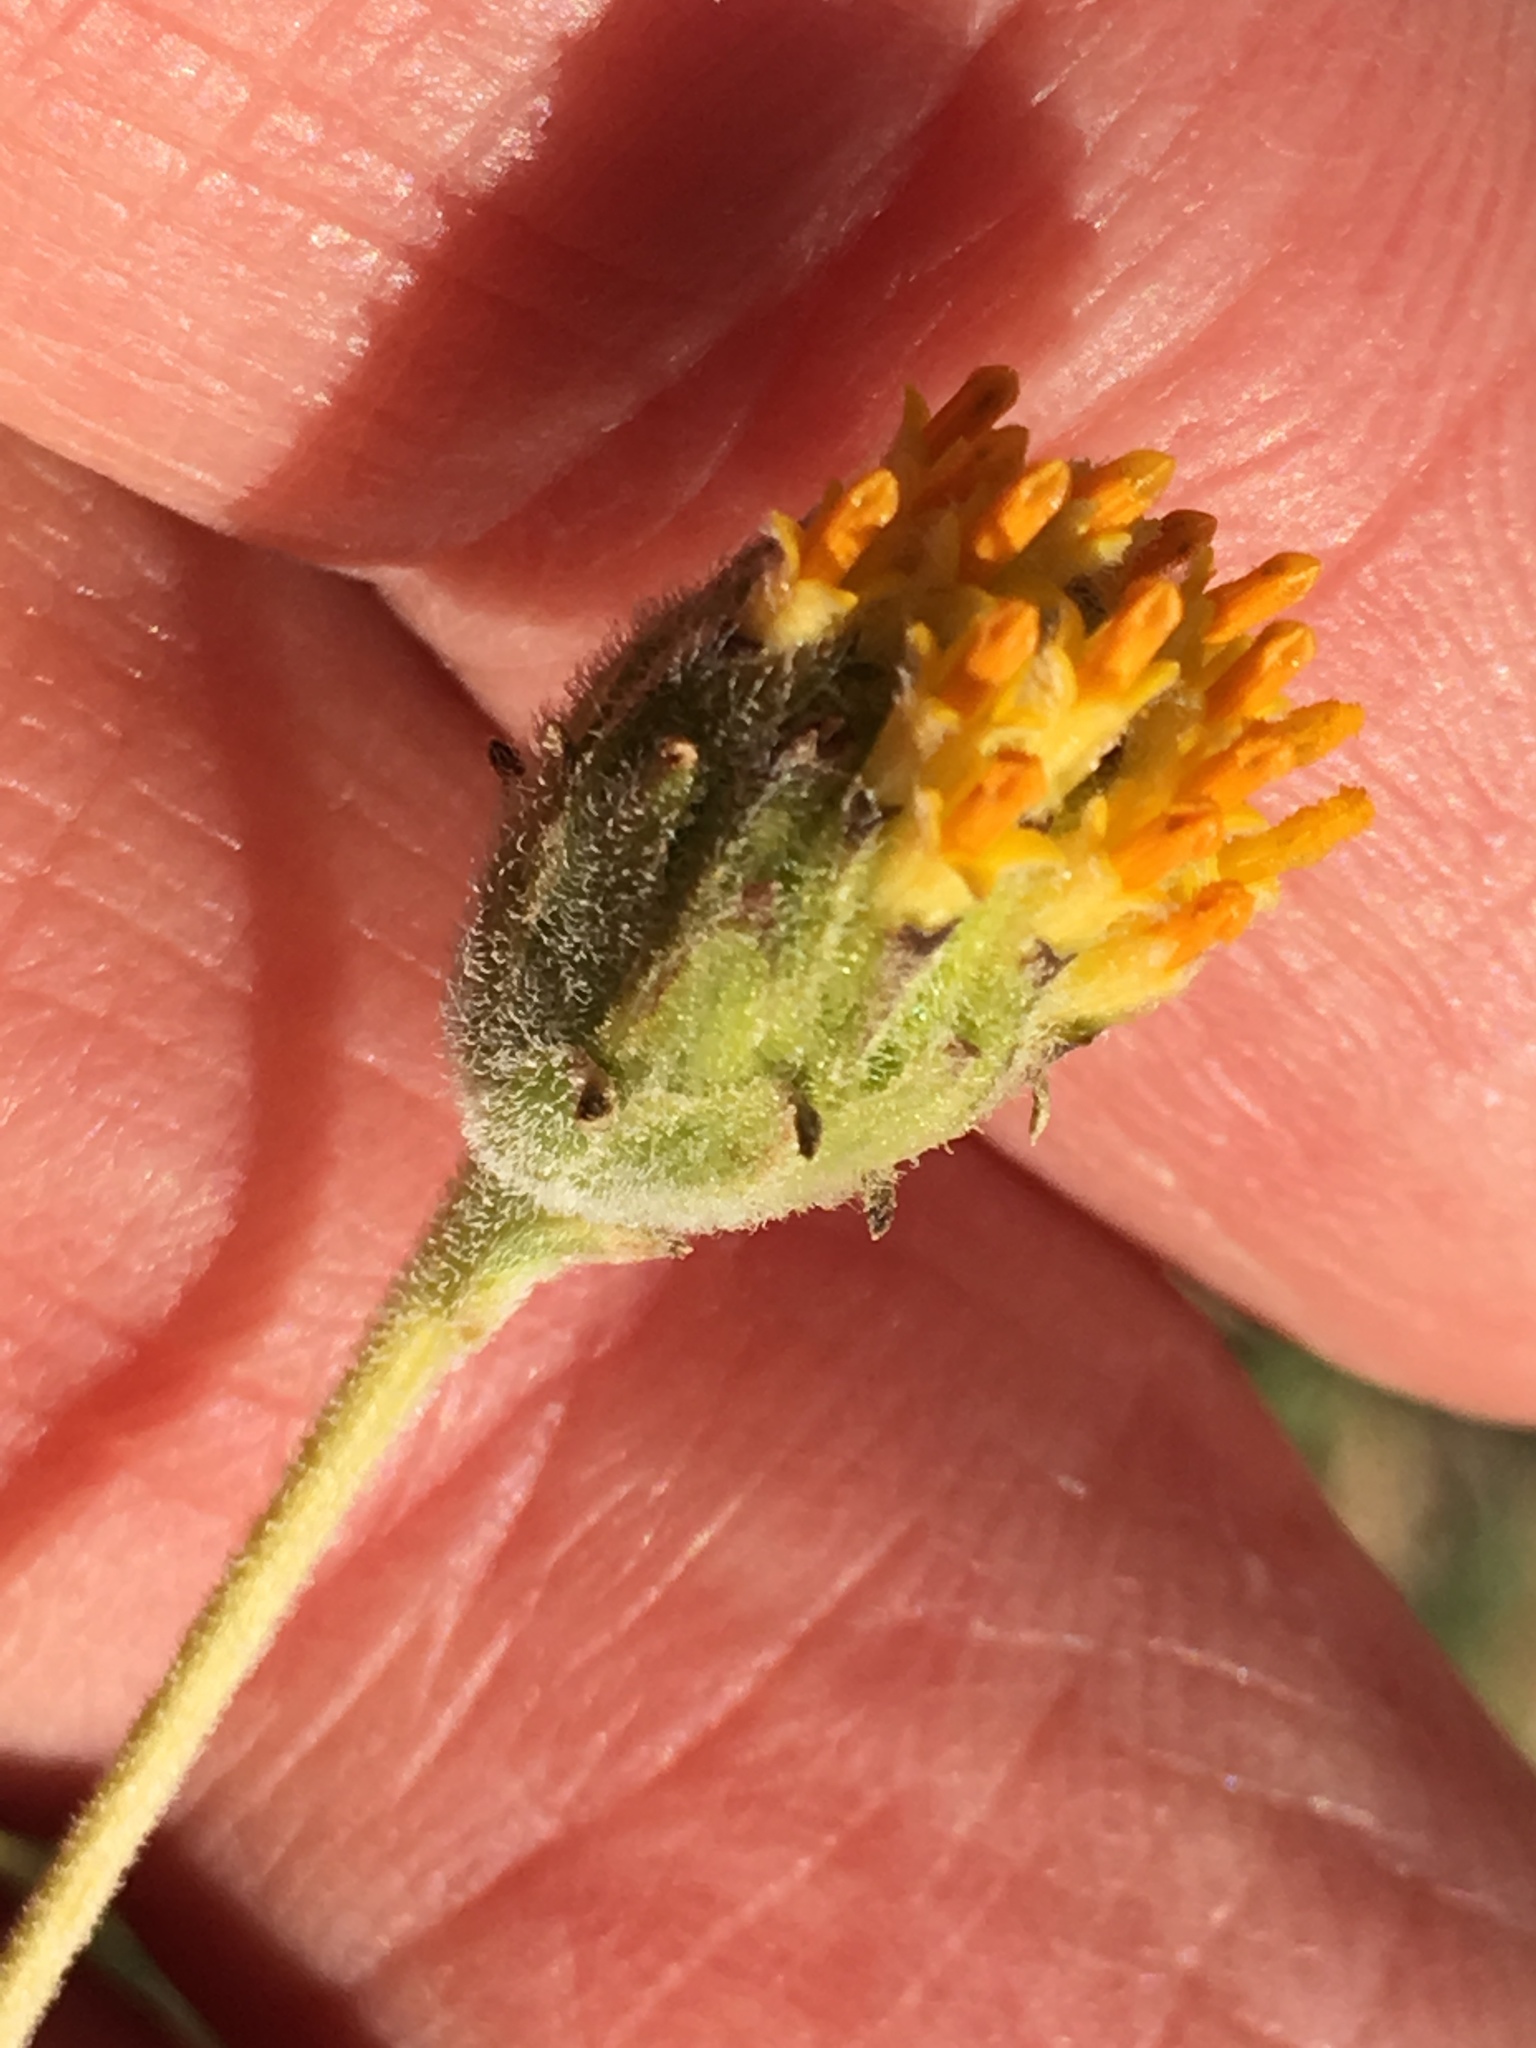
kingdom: Plantae
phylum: Tracheophyta
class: Magnoliopsida
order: Asterales
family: Asteraceae
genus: Encelia
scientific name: Encelia frutescens
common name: Bush encelia
